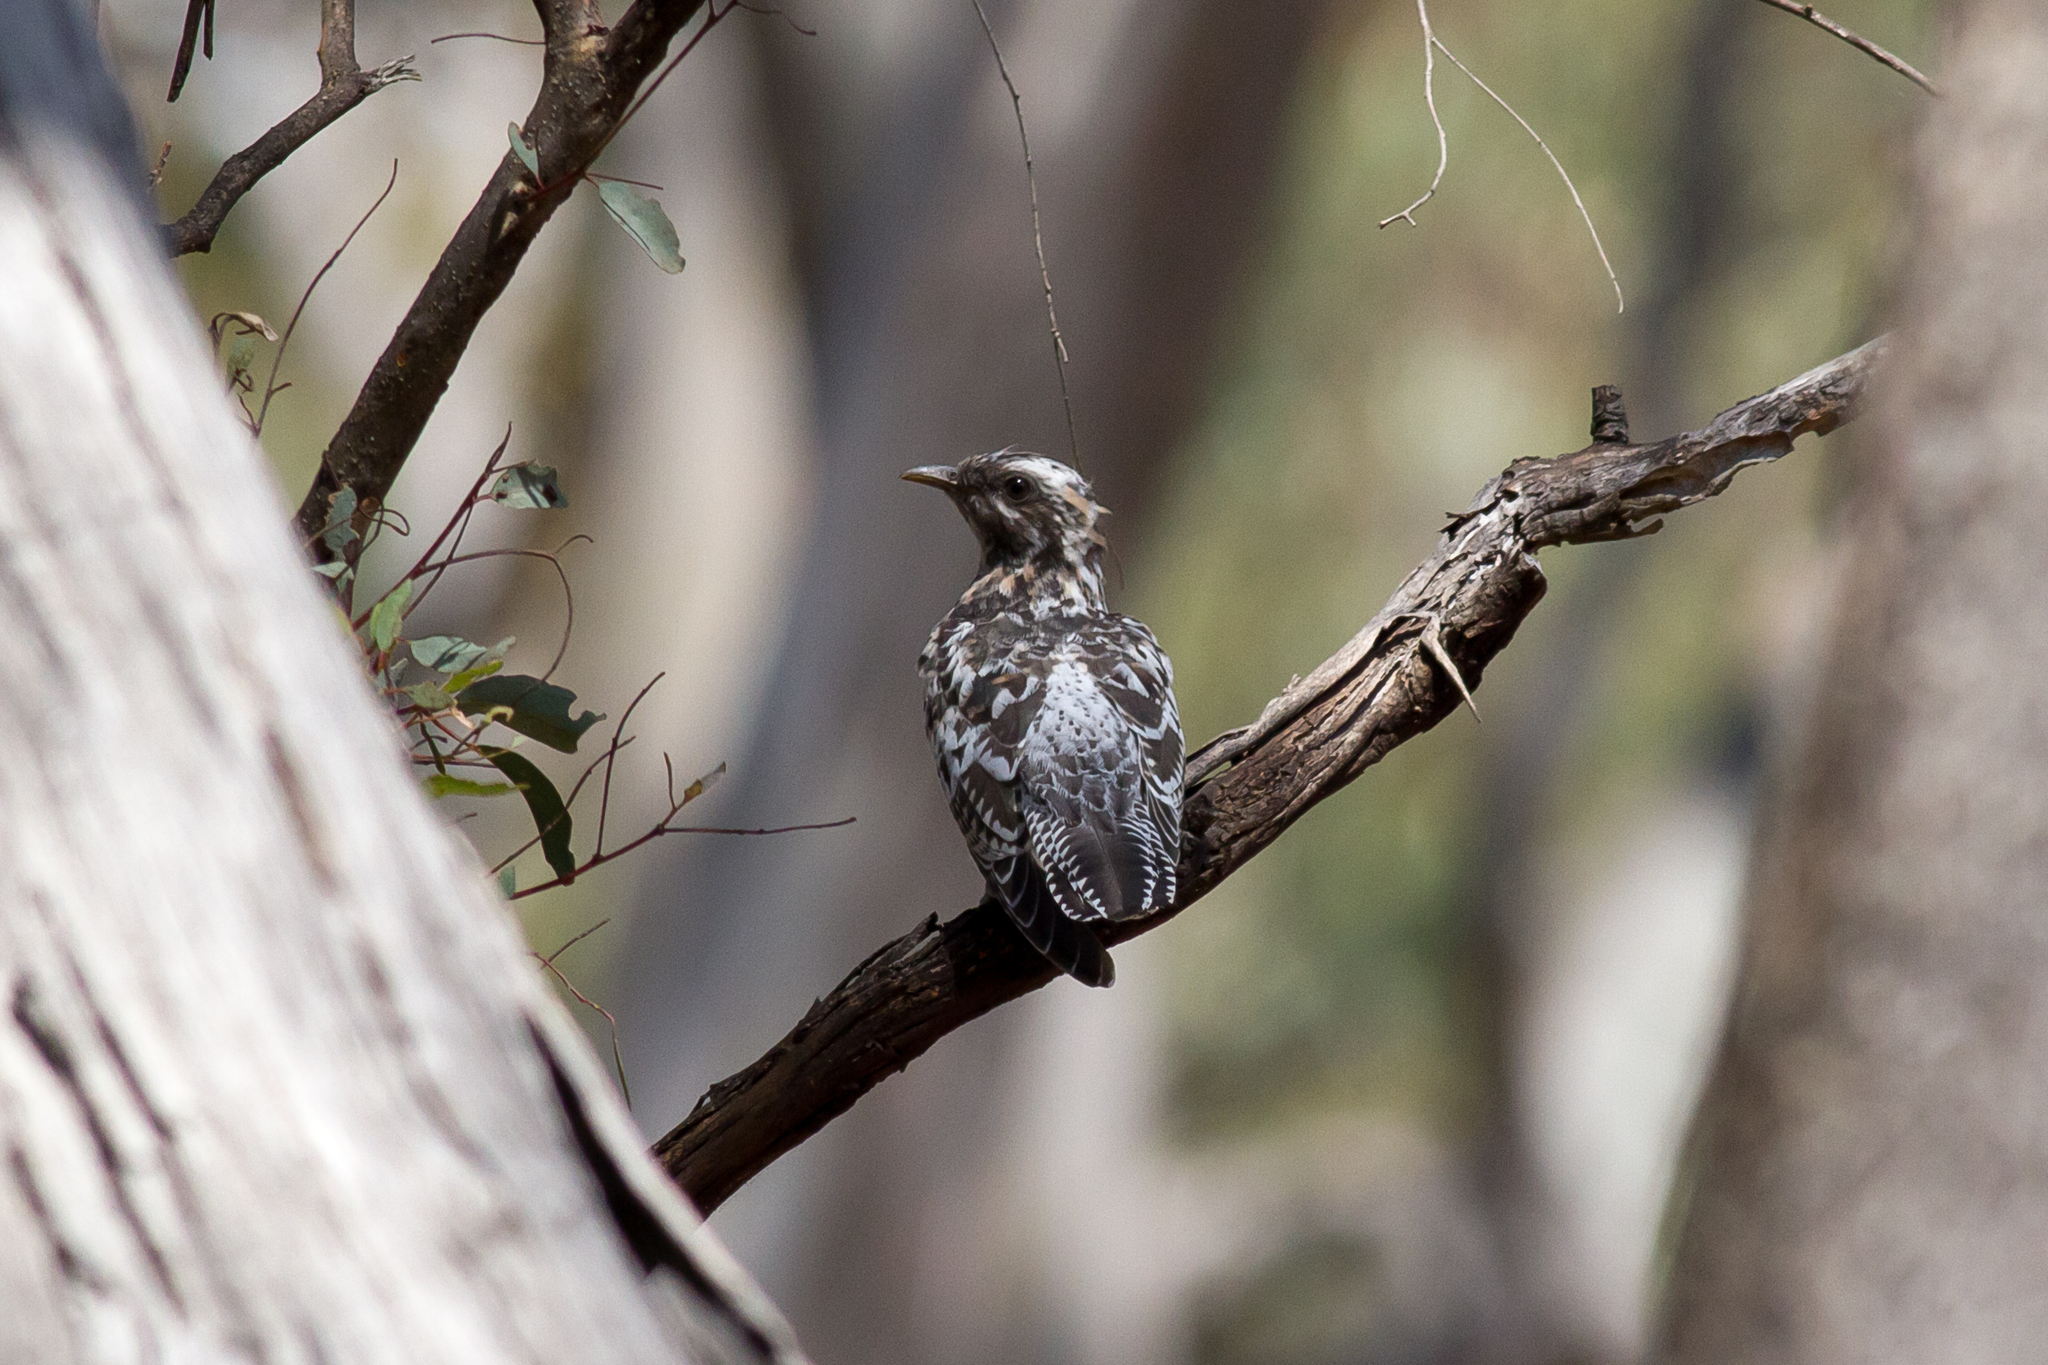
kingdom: Animalia
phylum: Chordata
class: Aves
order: Cuculiformes
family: Cuculidae
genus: Cuculus
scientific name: Cuculus pallidus
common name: Pallid cuckoo
